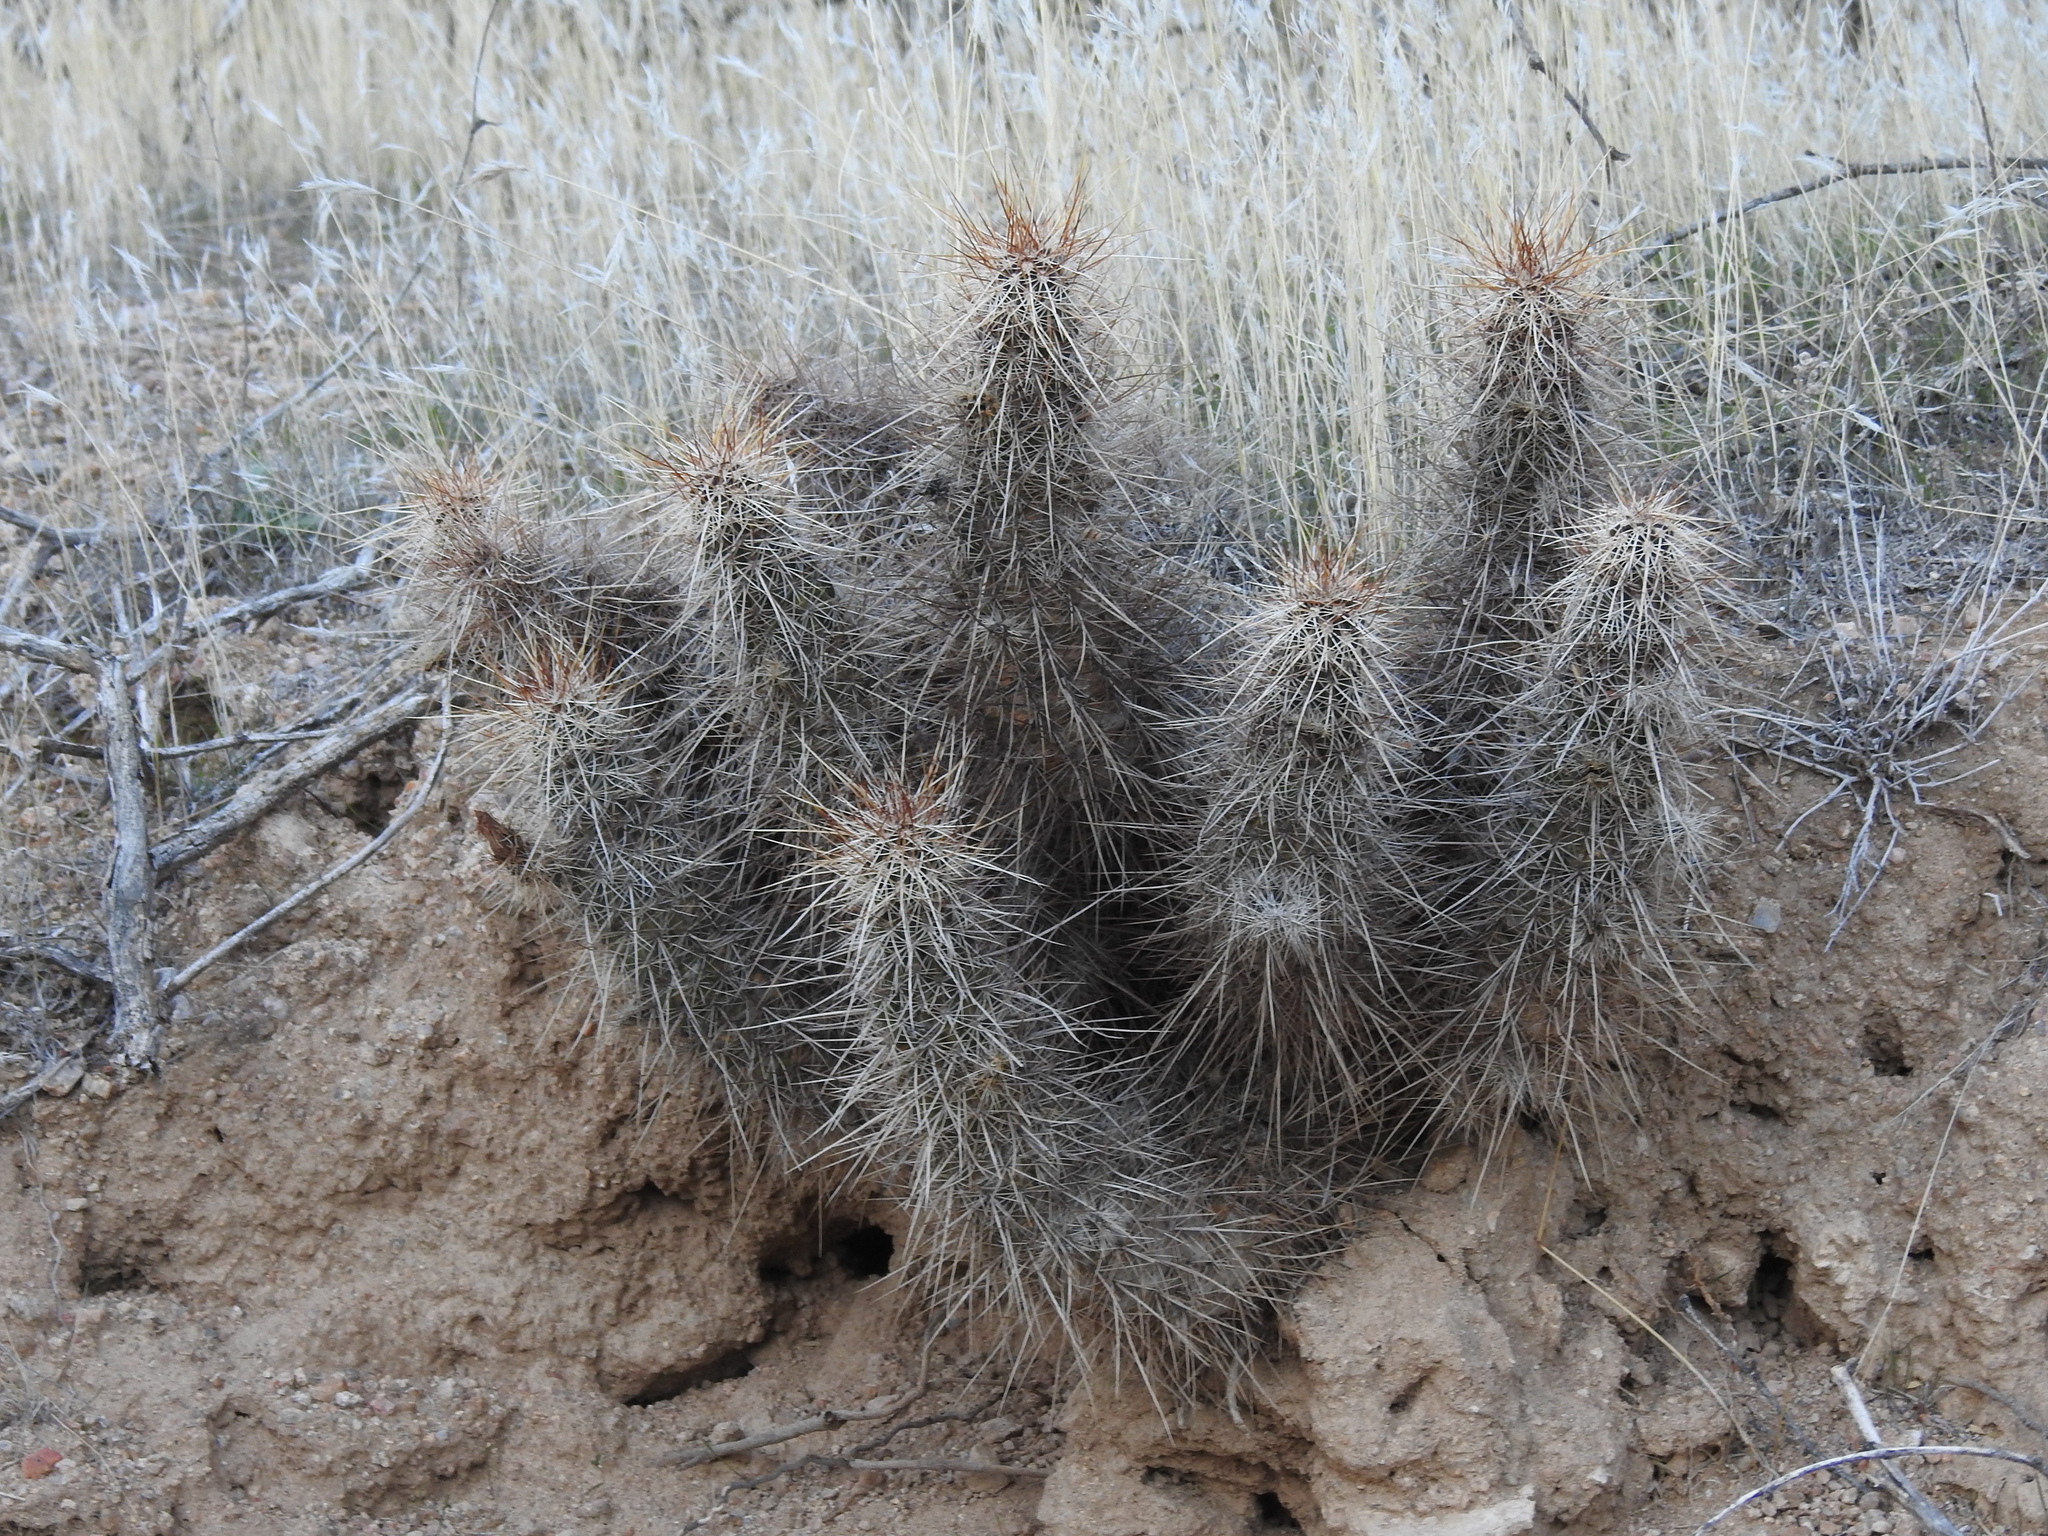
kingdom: Plantae
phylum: Tracheophyta
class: Magnoliopsida
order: Caryophyllales
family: Cactaceae
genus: Echinocereus
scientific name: Echinocereus engelmannii
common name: Engelmann's hedgehog cactus
